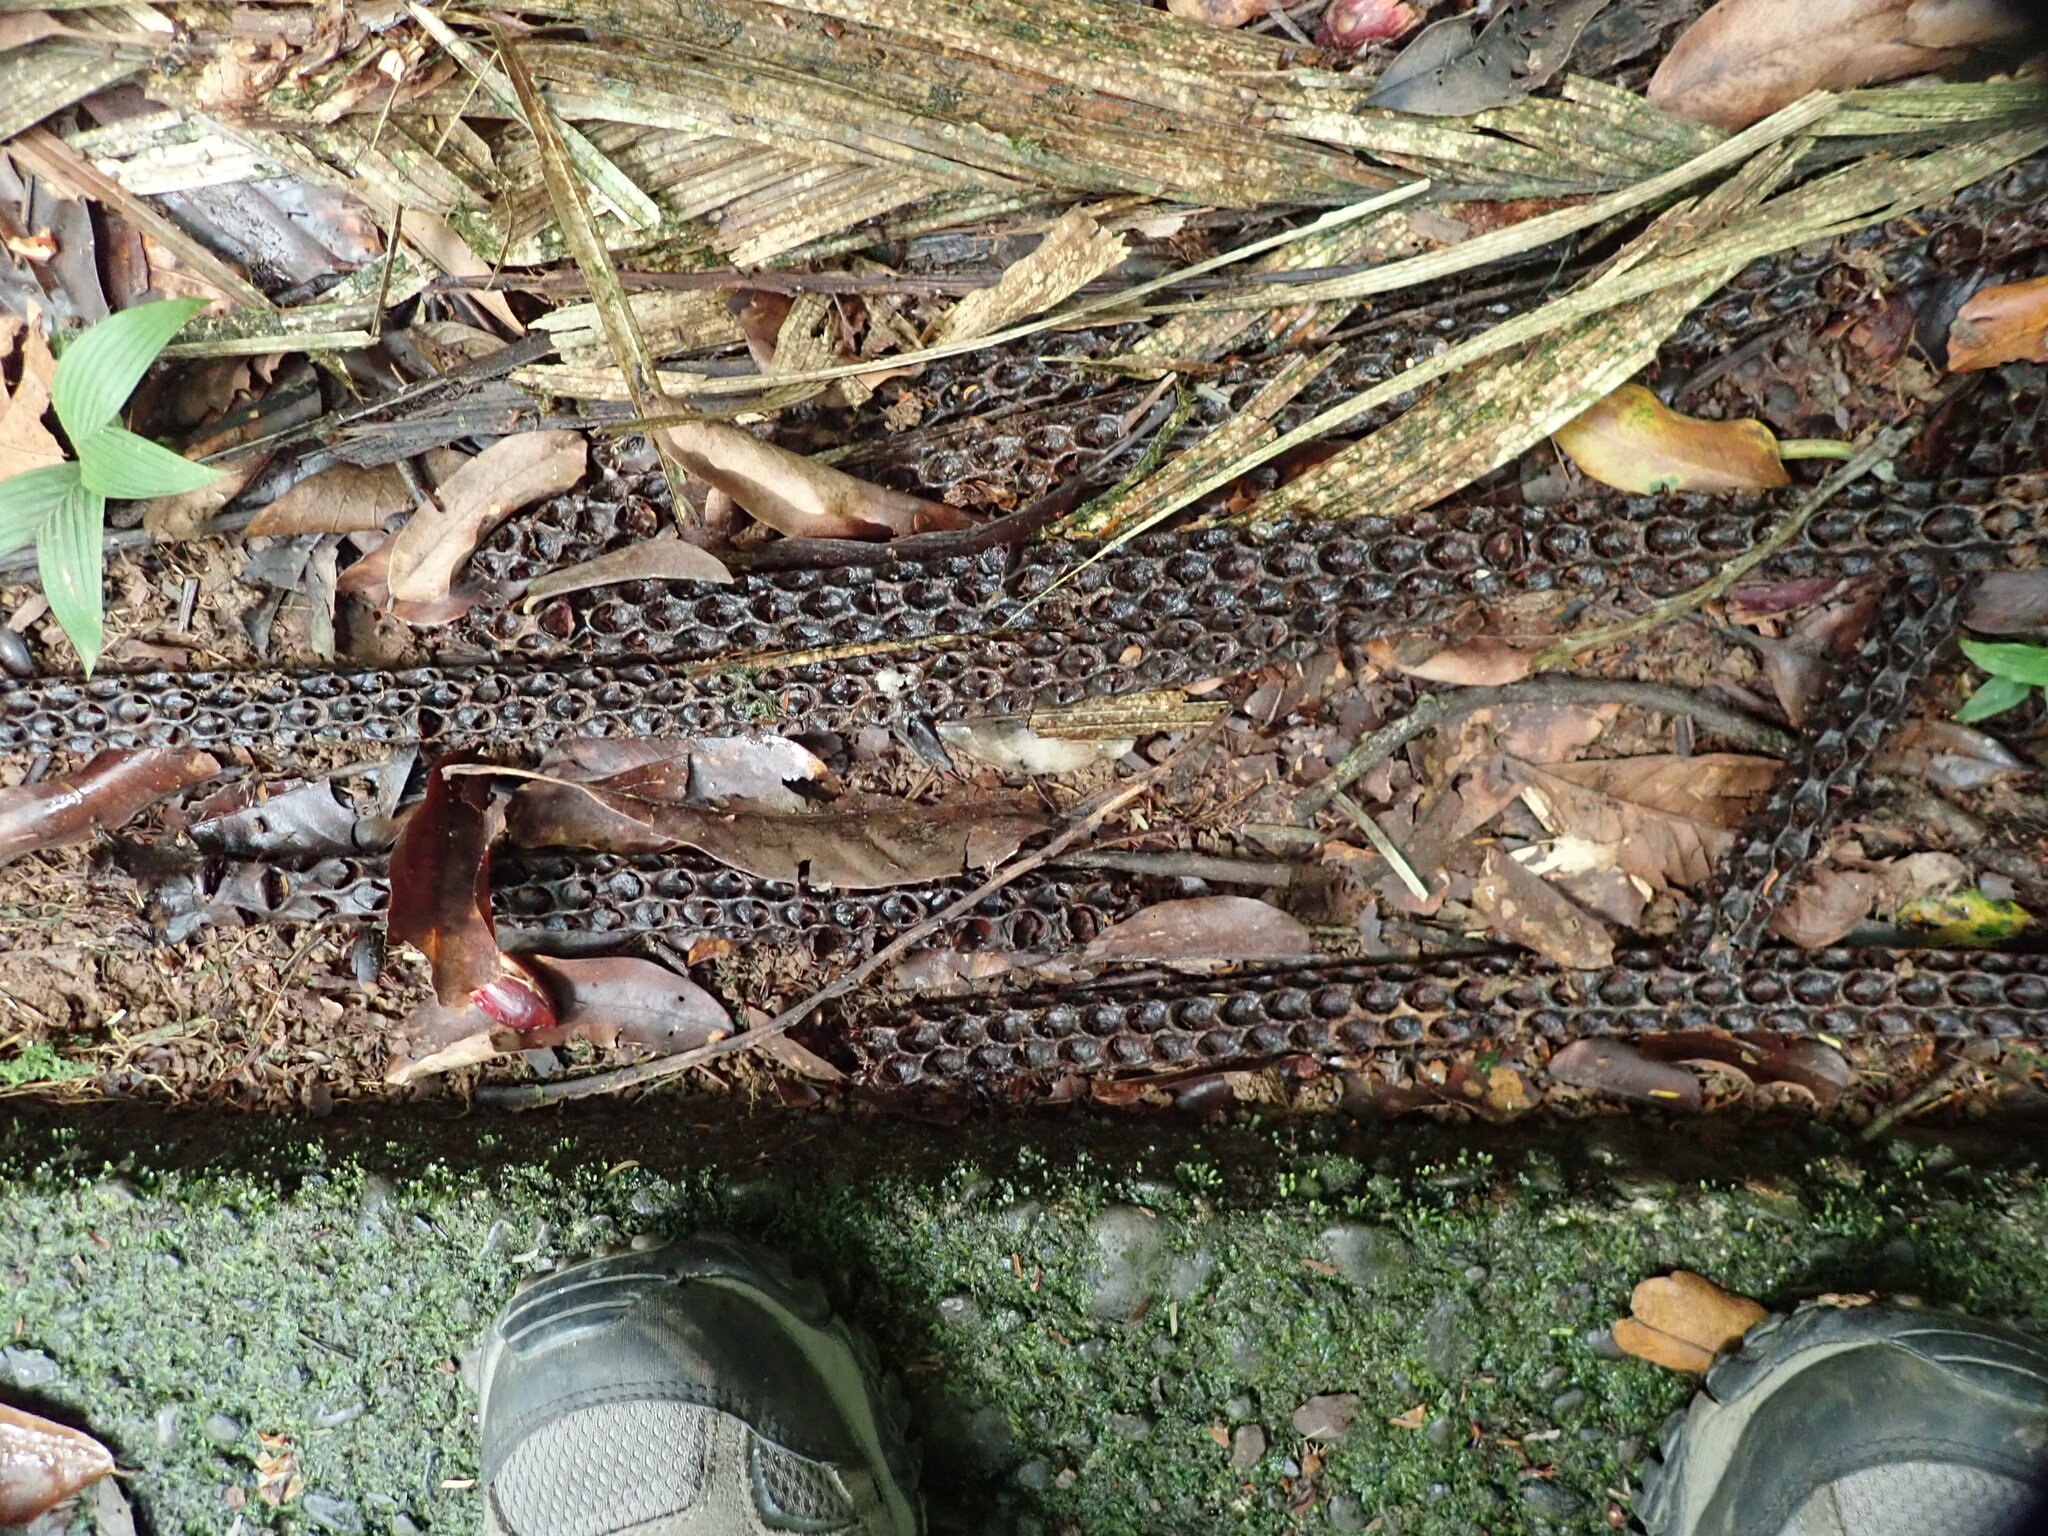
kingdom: Plantae
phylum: Tracheophyta
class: Liliopsida
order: Arecales
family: Arecaceae
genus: Welfia
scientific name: Welfia regia
